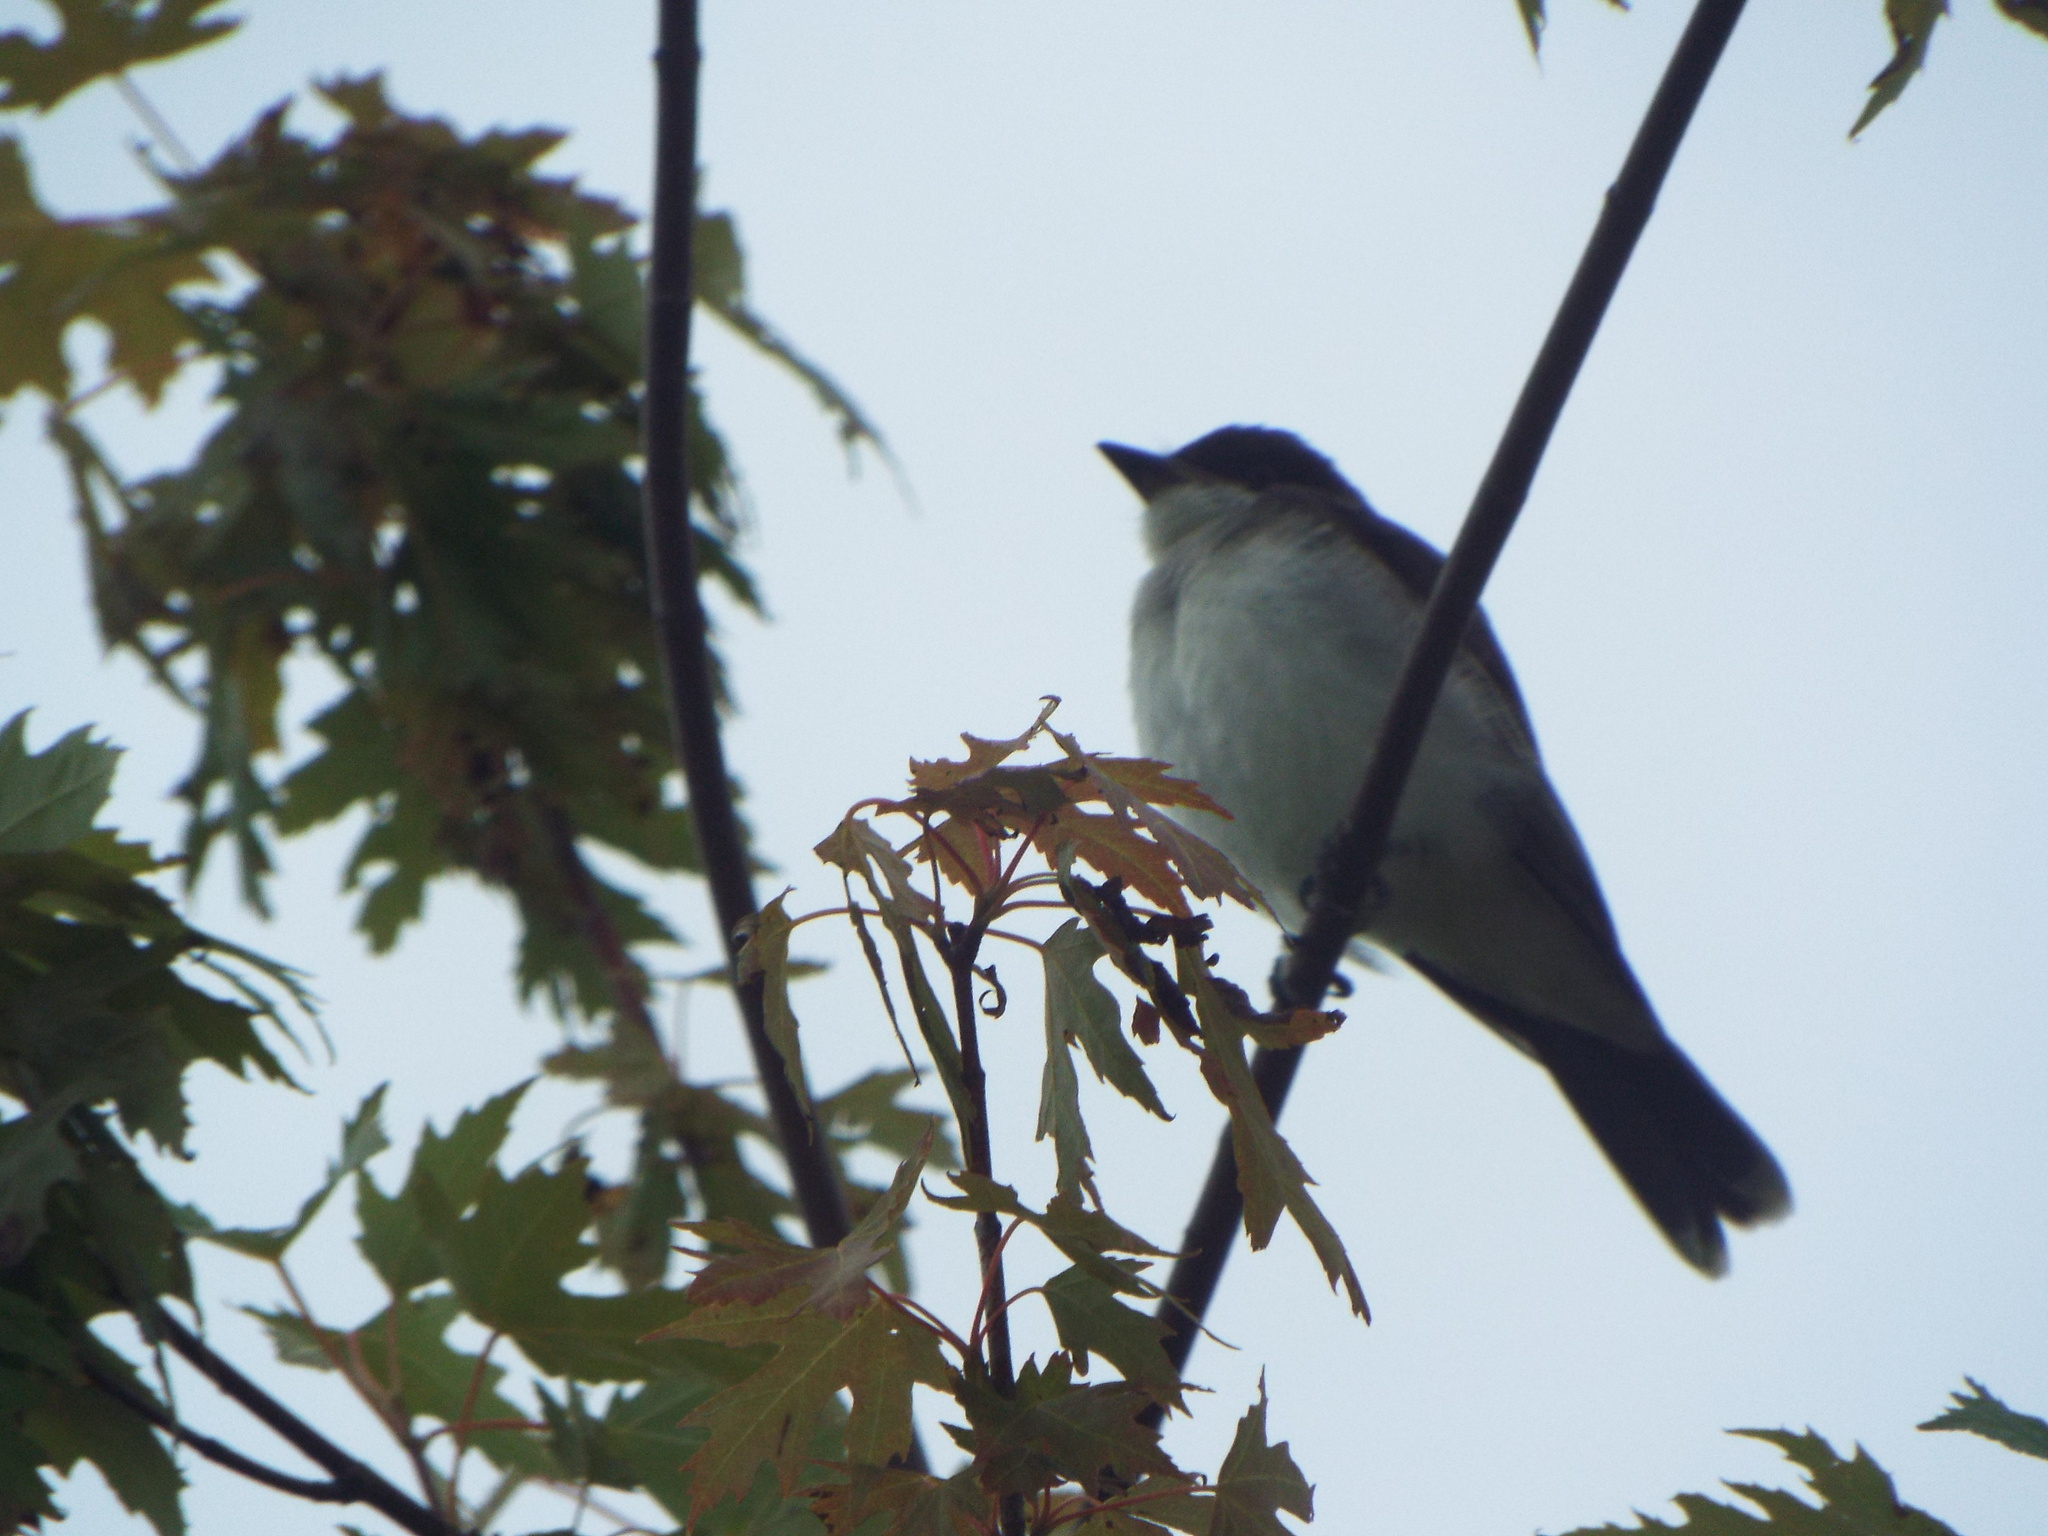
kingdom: Animalia
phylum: Chordata
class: Aves
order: Passeriformes
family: Tyrannidae
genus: Tyrannus
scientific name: Tyrannus tyrannus
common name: Eastern kingbird
